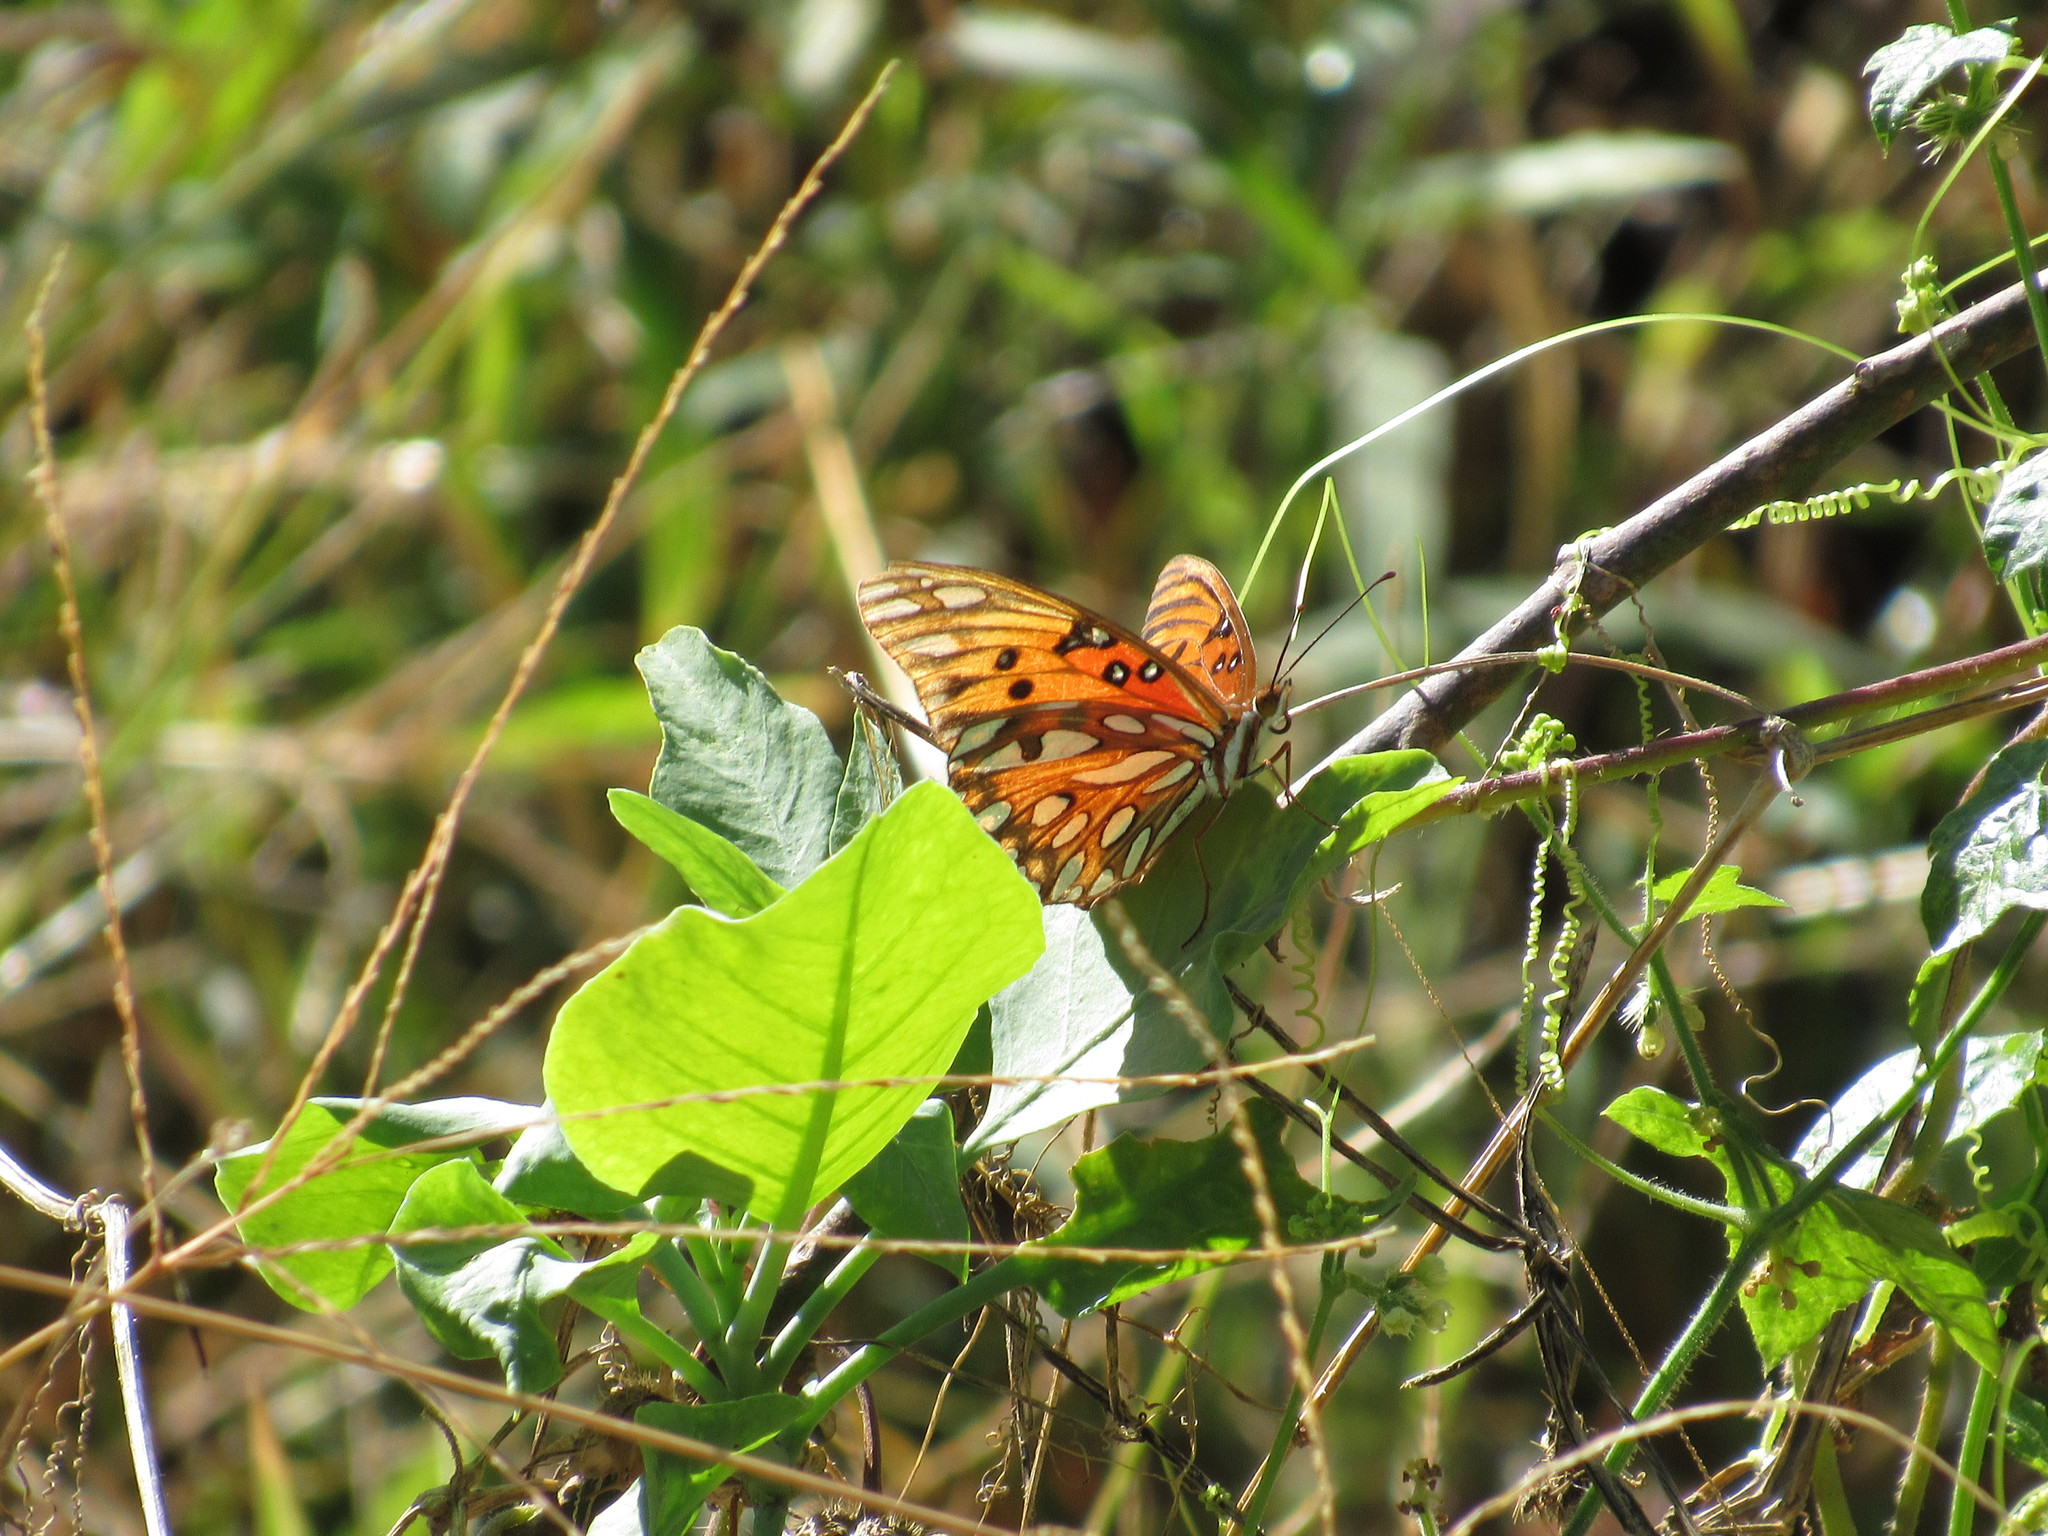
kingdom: Animalia
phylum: Arthropoda
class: Insecta
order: Lepidoptera
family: Nymphalidae
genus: Dione
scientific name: Dione vanillae
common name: Gulf fritillary
